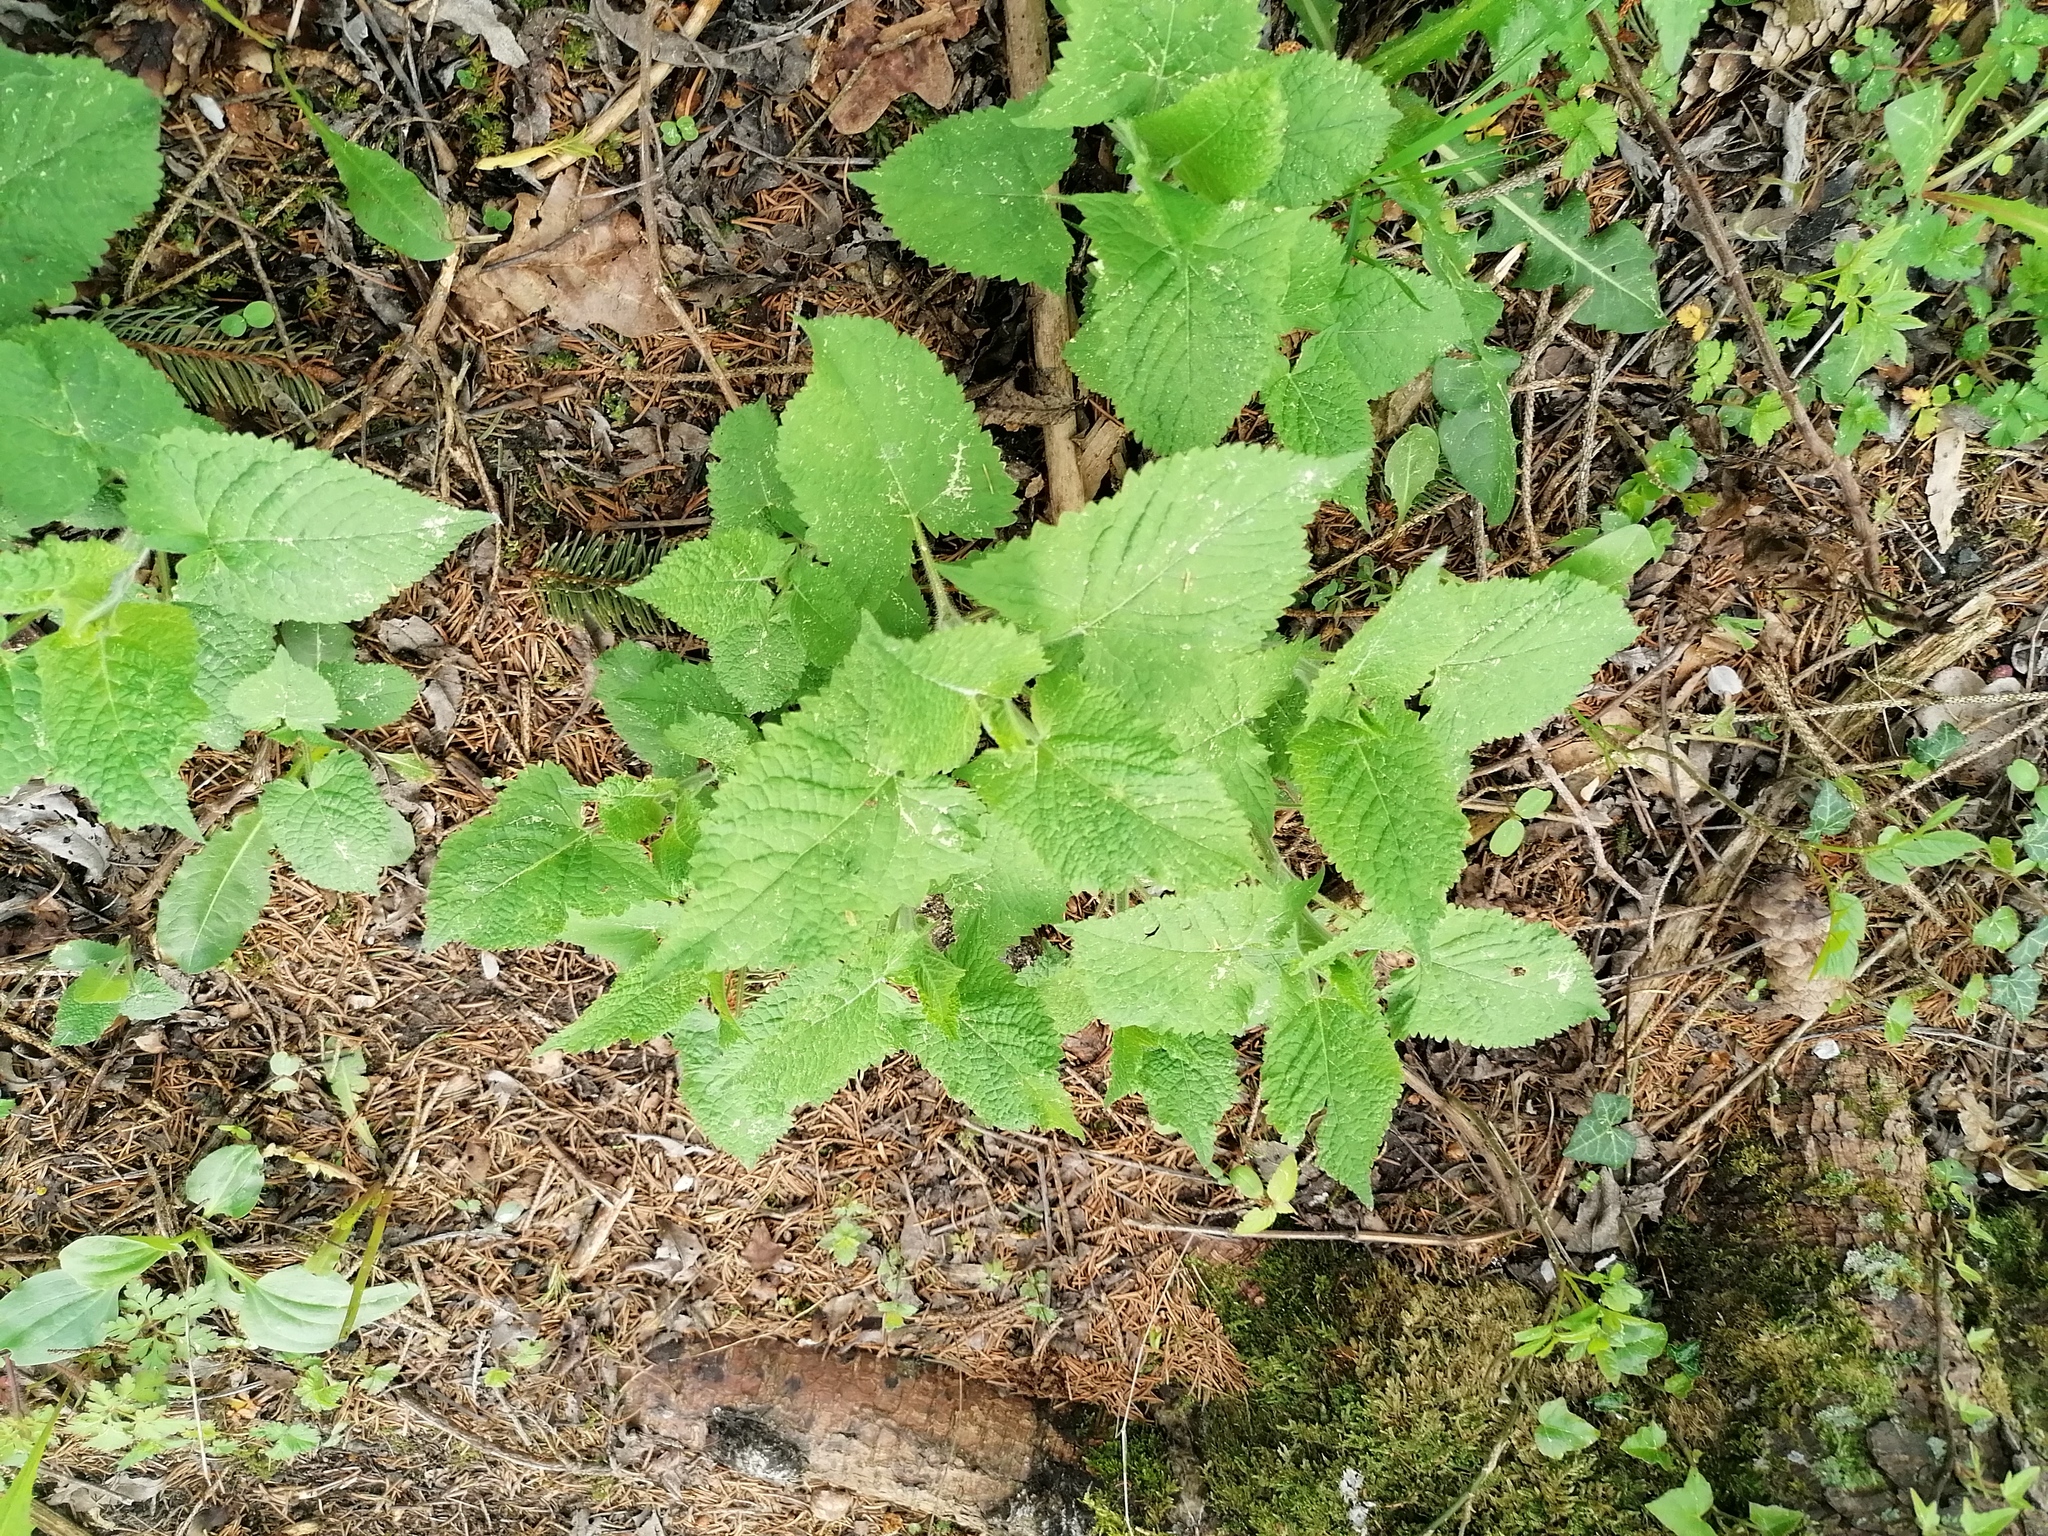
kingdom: Plantae
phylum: Tracheophyta
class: Magnoliopsida
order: Lamiales
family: Lamiaceae
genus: Salvia
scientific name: Salvia glutinosa
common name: Sticky clary
